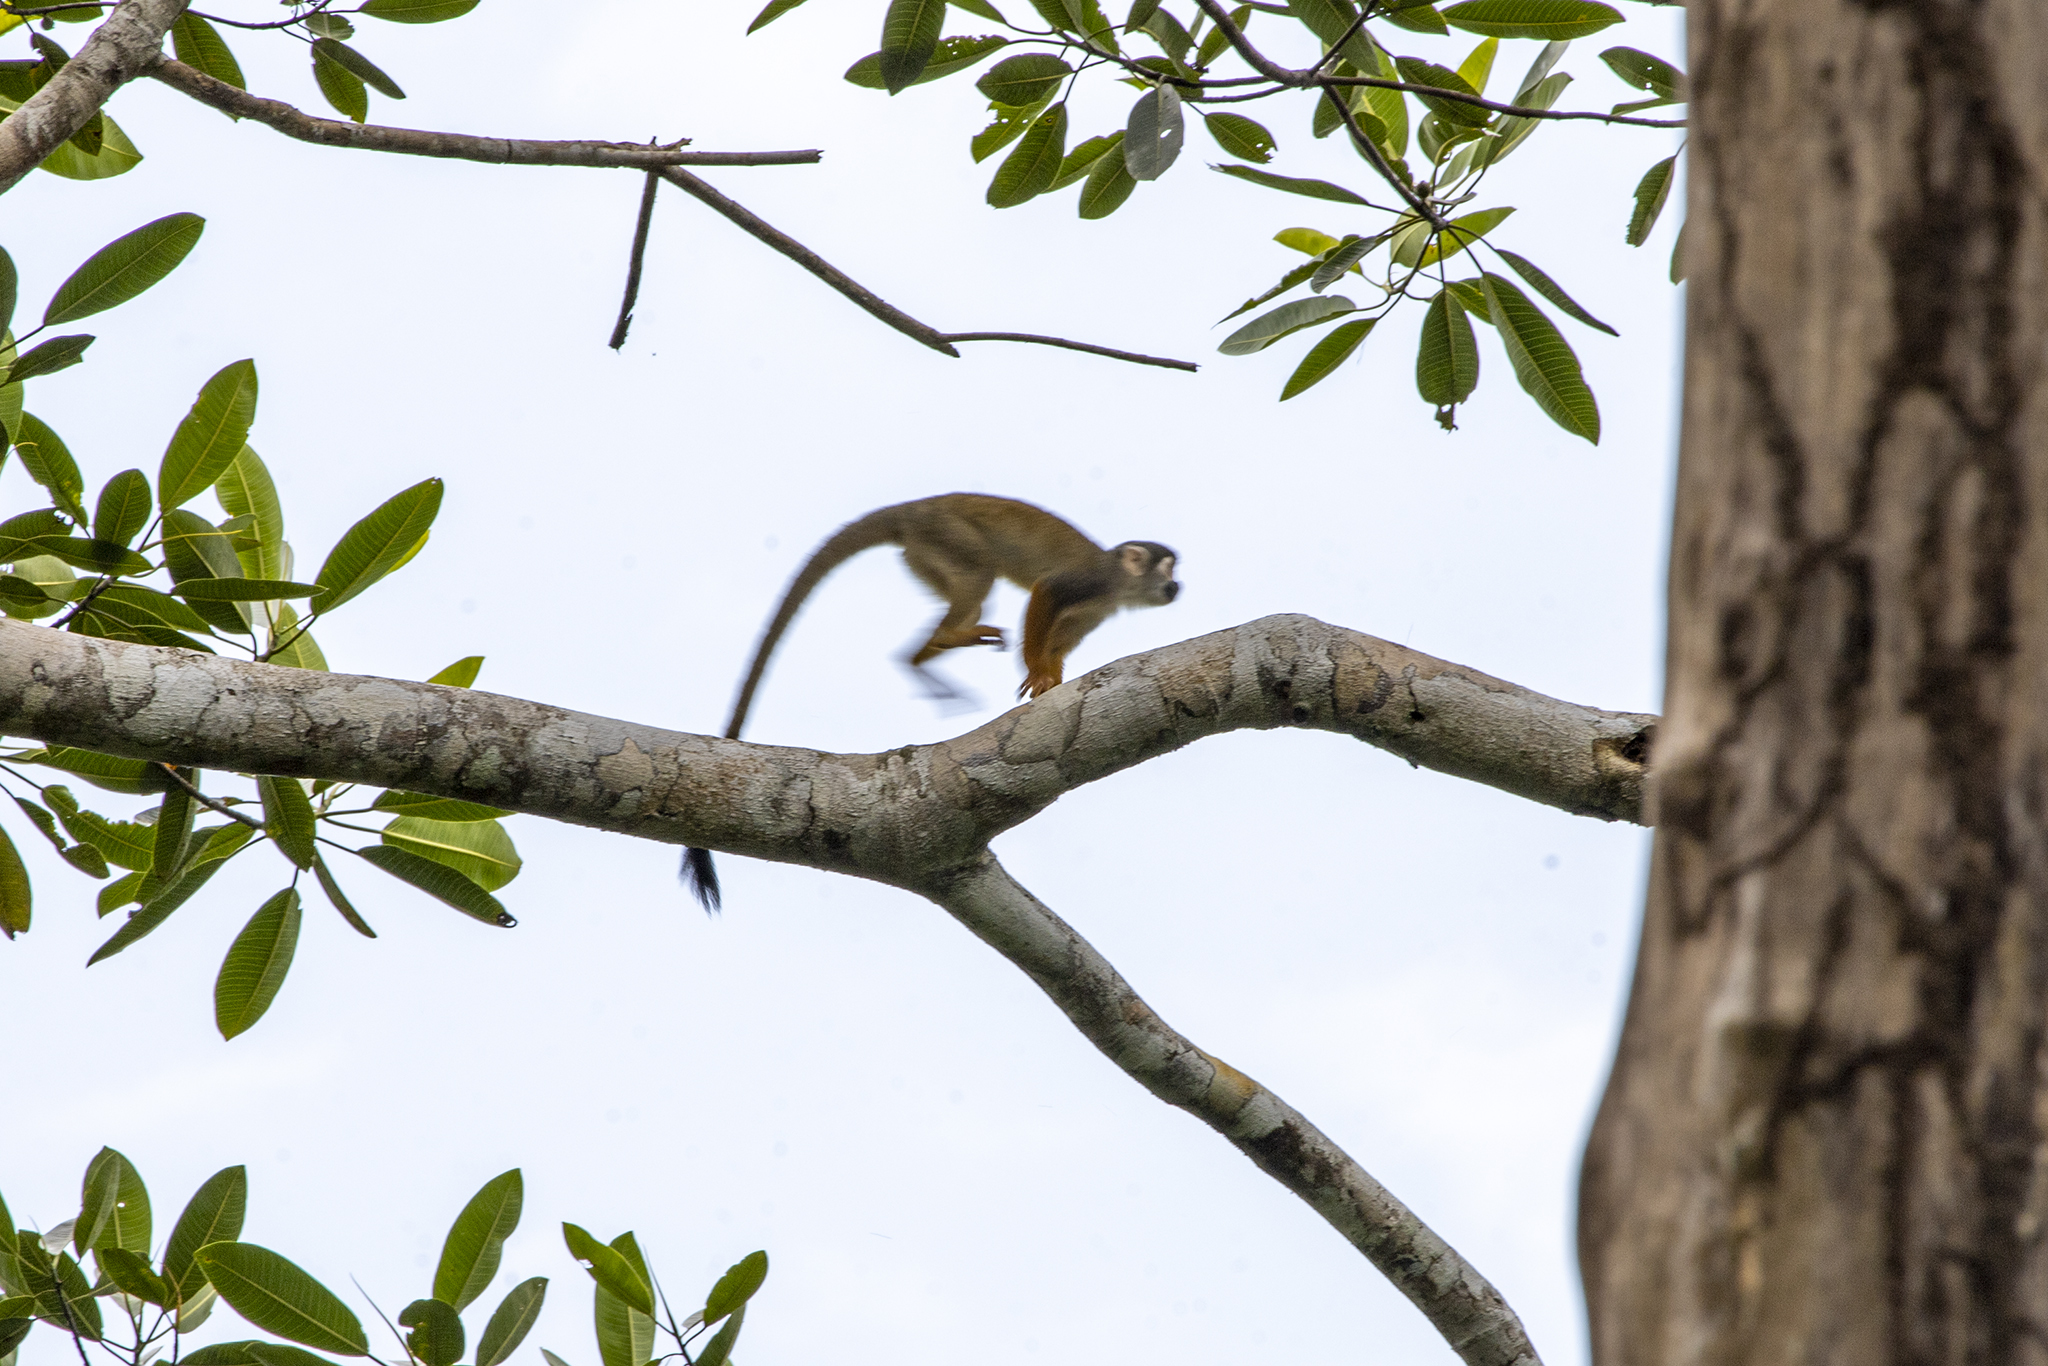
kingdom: Animalia
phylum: Chordata
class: Mammalia
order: Primates
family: Cebidae
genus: Saimiri
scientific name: Saimiri cassiquiarensis
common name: Humboldt’s squirrel monkey
